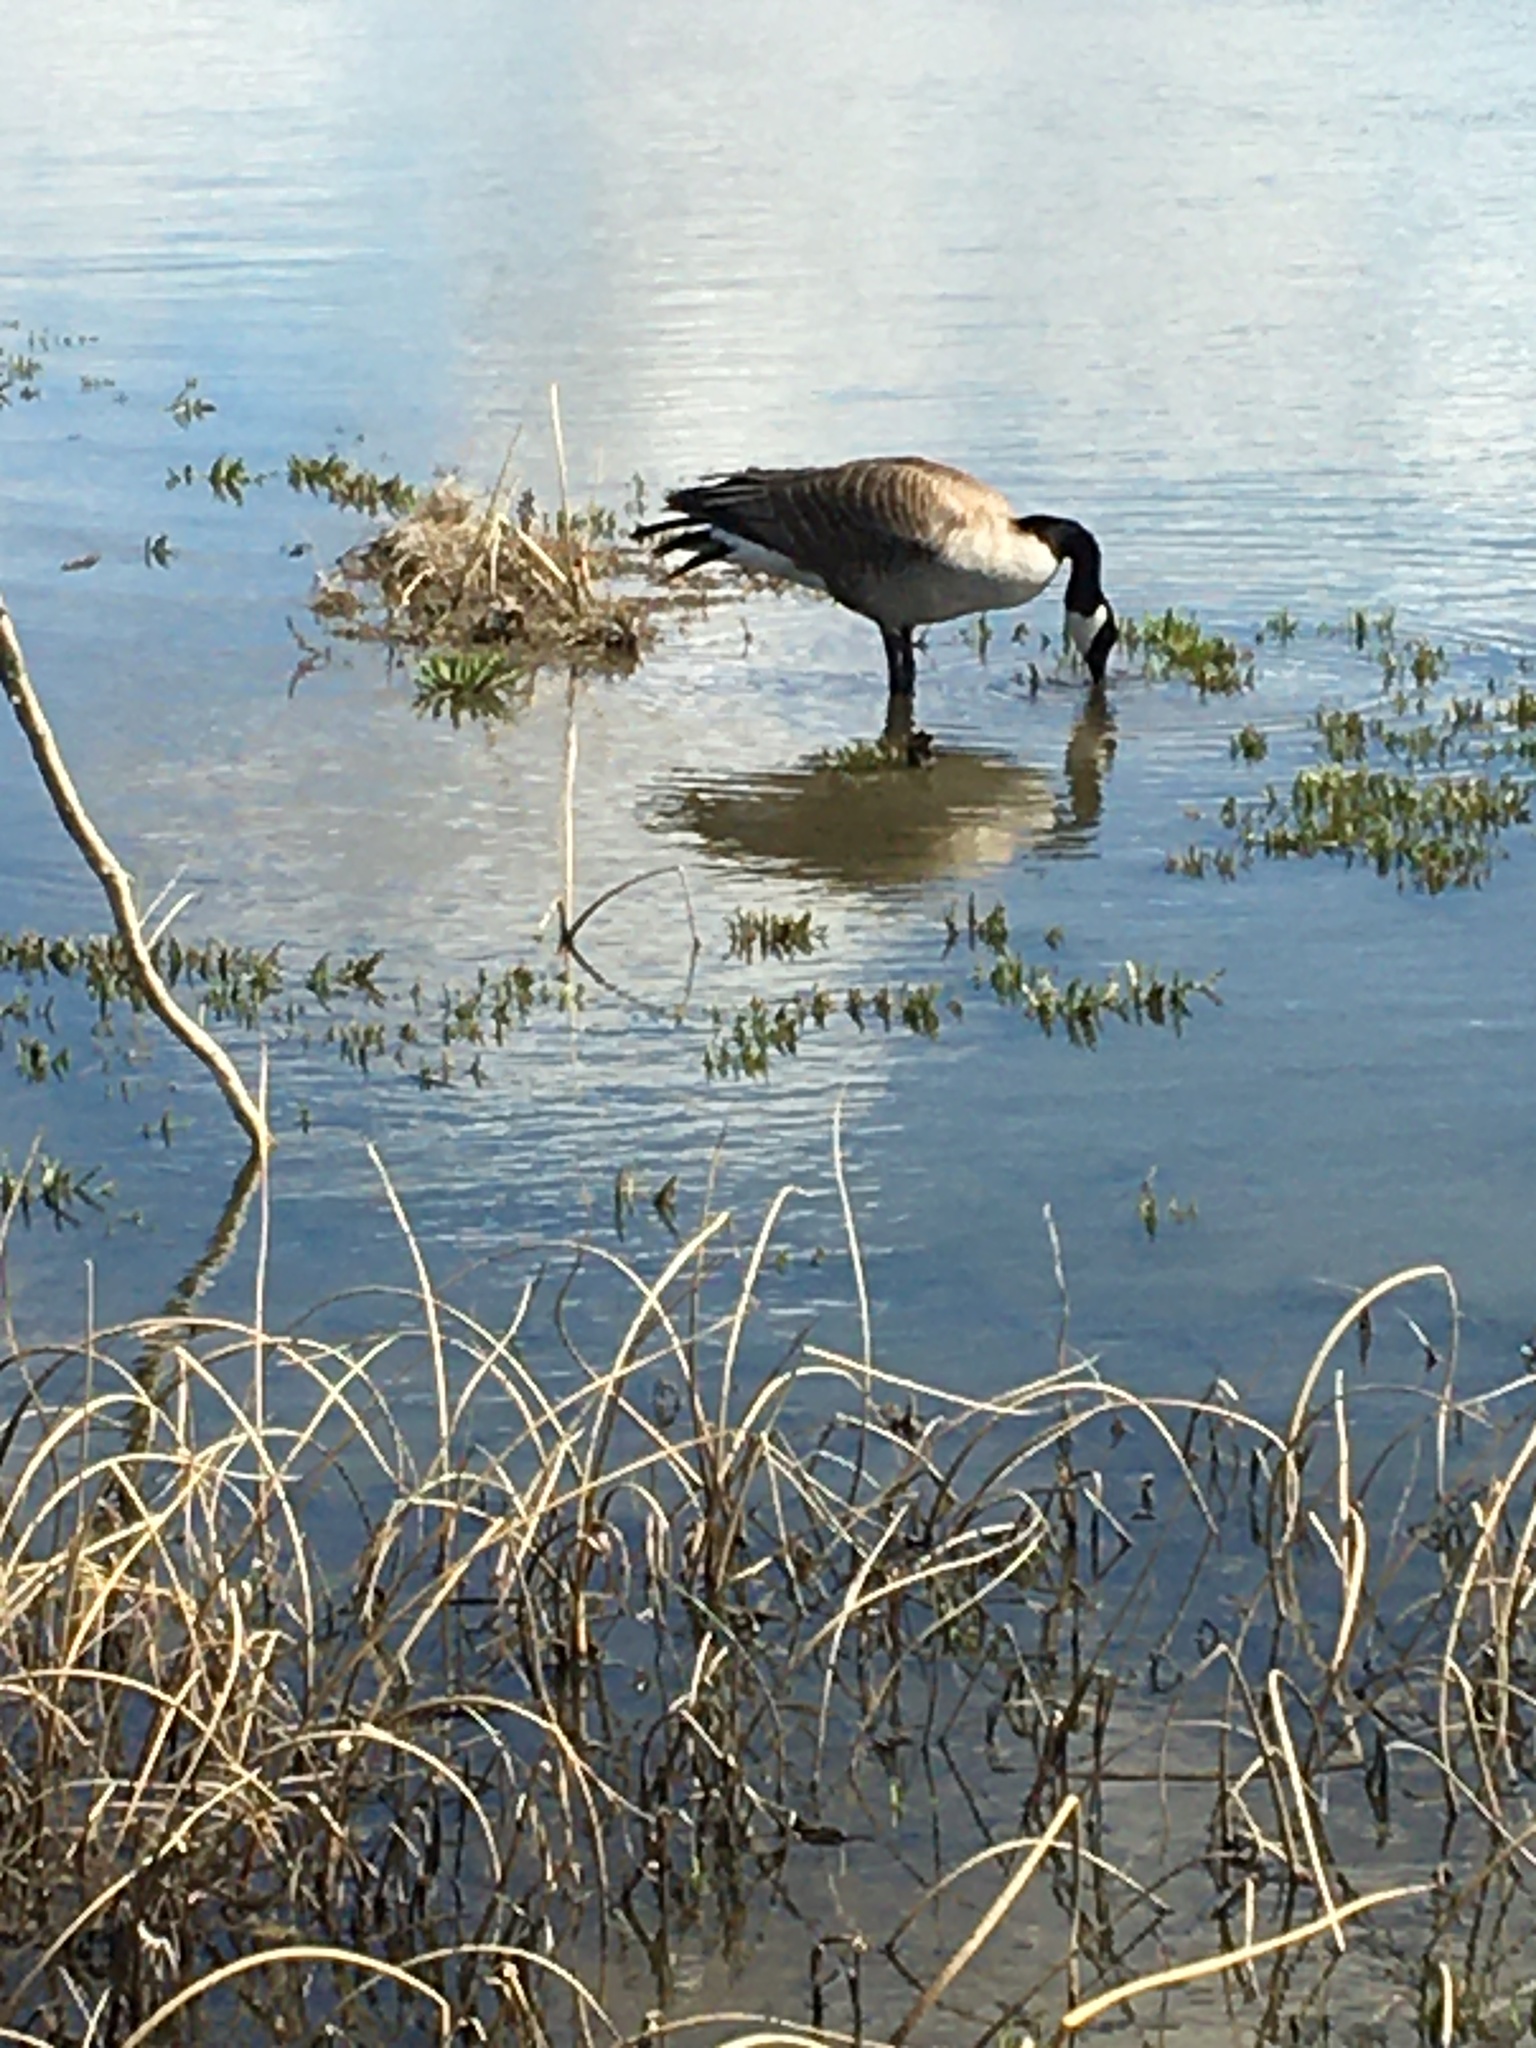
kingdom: Animalia
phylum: Chordata
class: Aves
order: Anseriformes
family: Anatidae
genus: Branta
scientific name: Branta canadensis
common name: Canada goose
